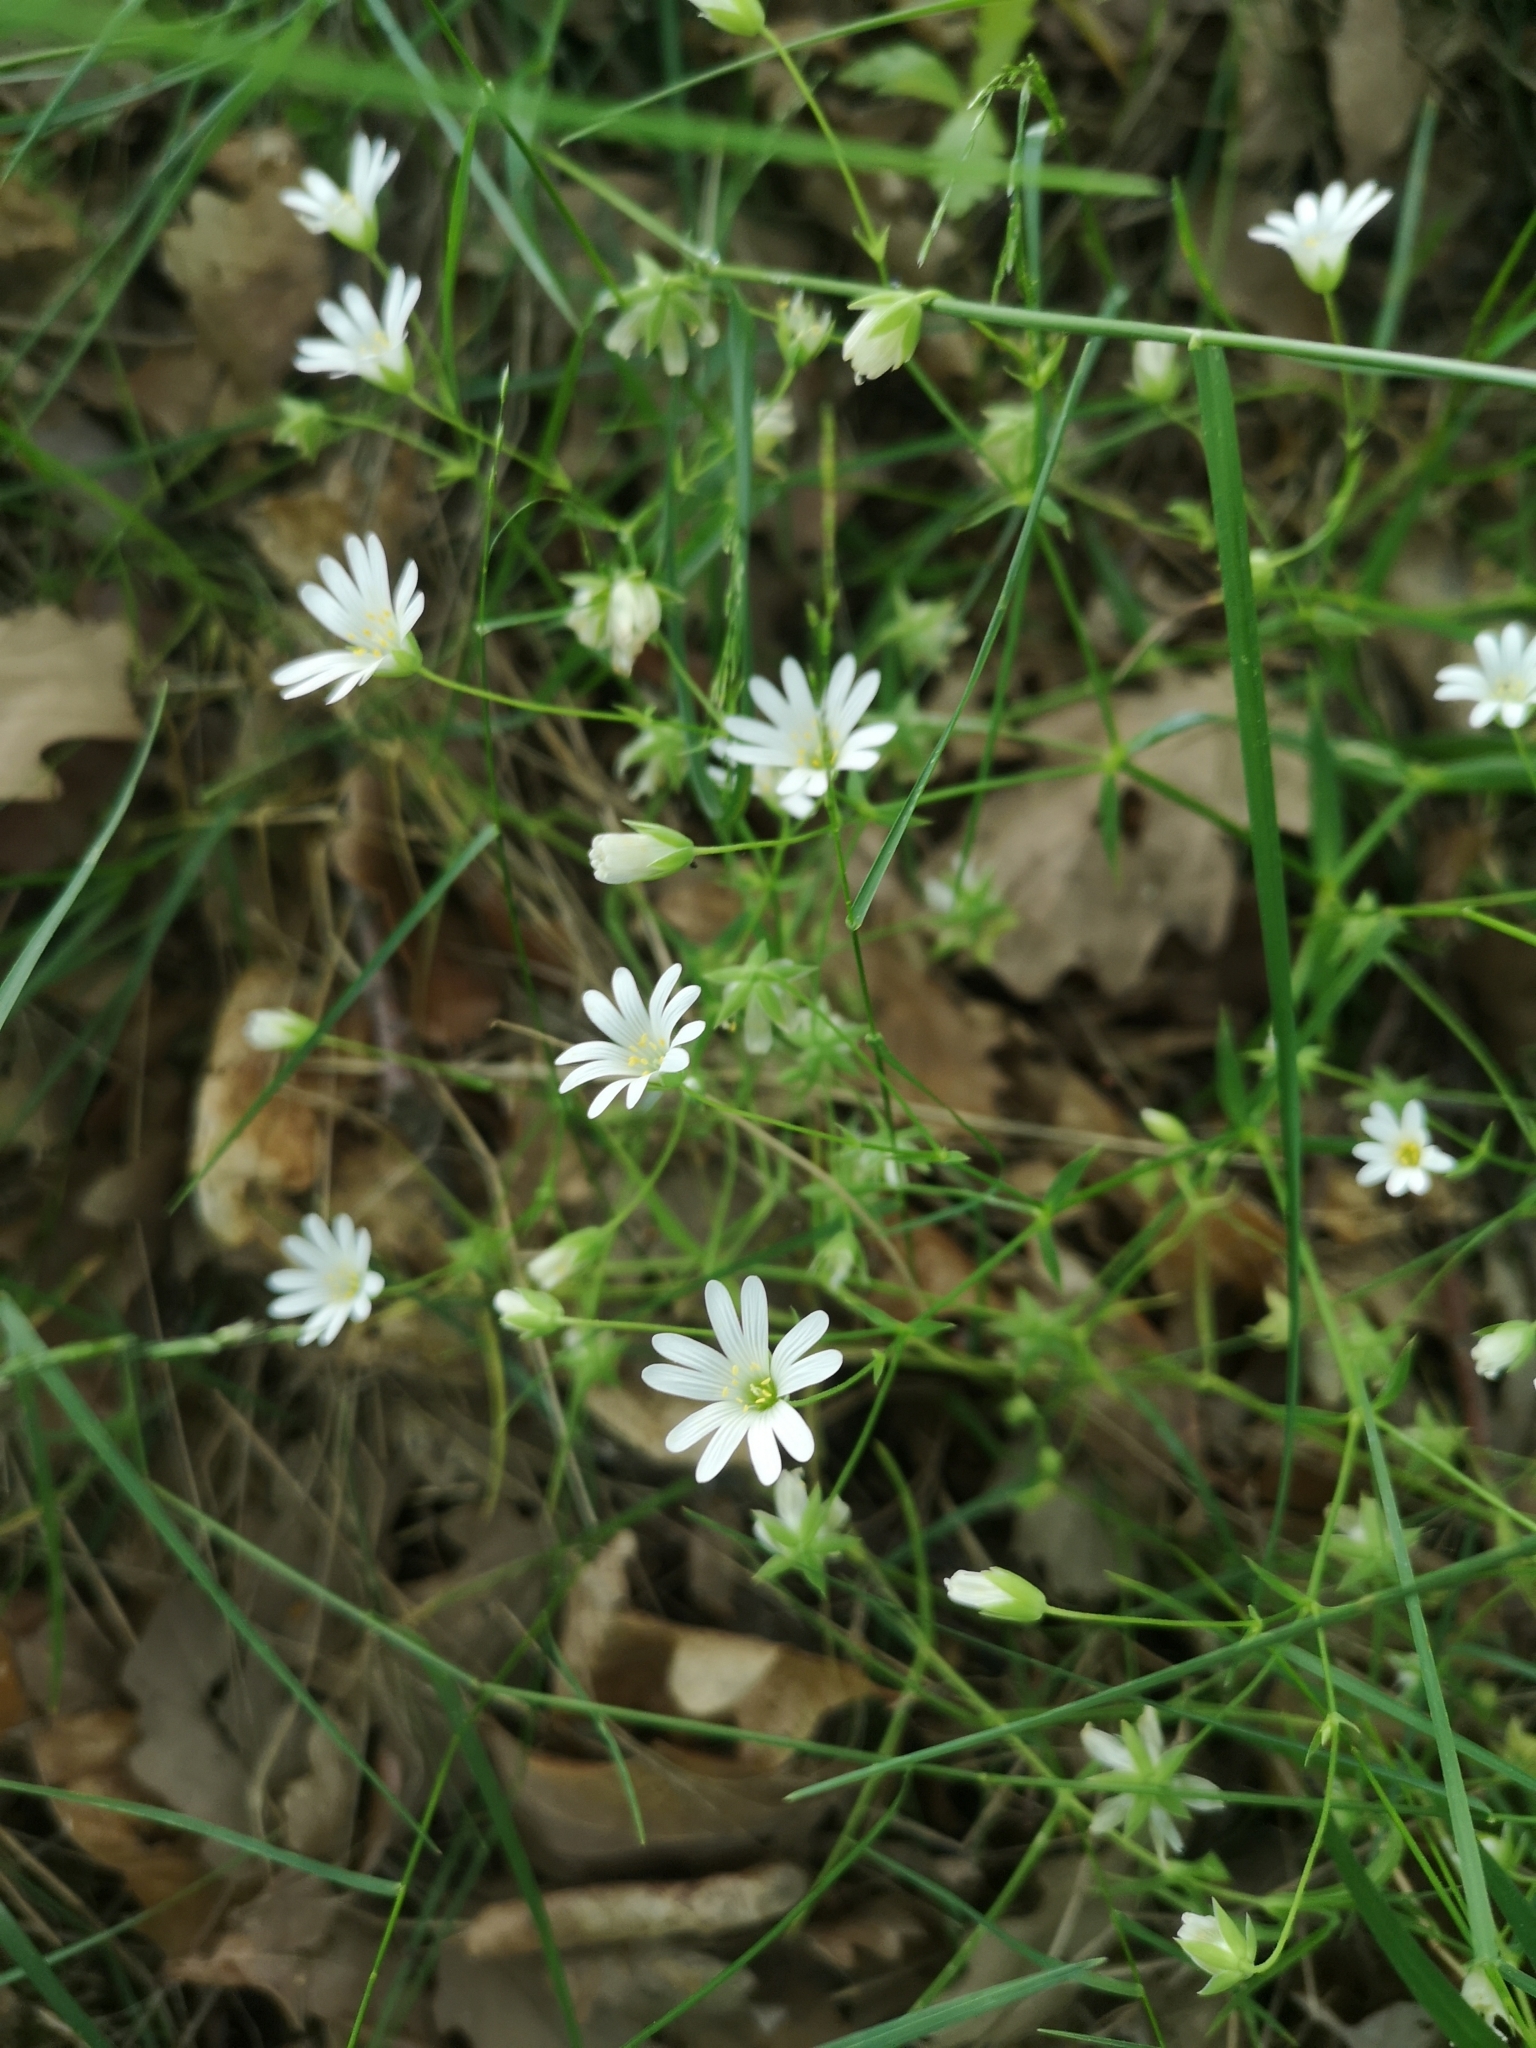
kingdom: Plantae
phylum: Tracheophyta
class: Magnoliopsida
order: Caryophyllales
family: Caryophyllaceae
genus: Rabelera
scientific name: Rabelera holostea
